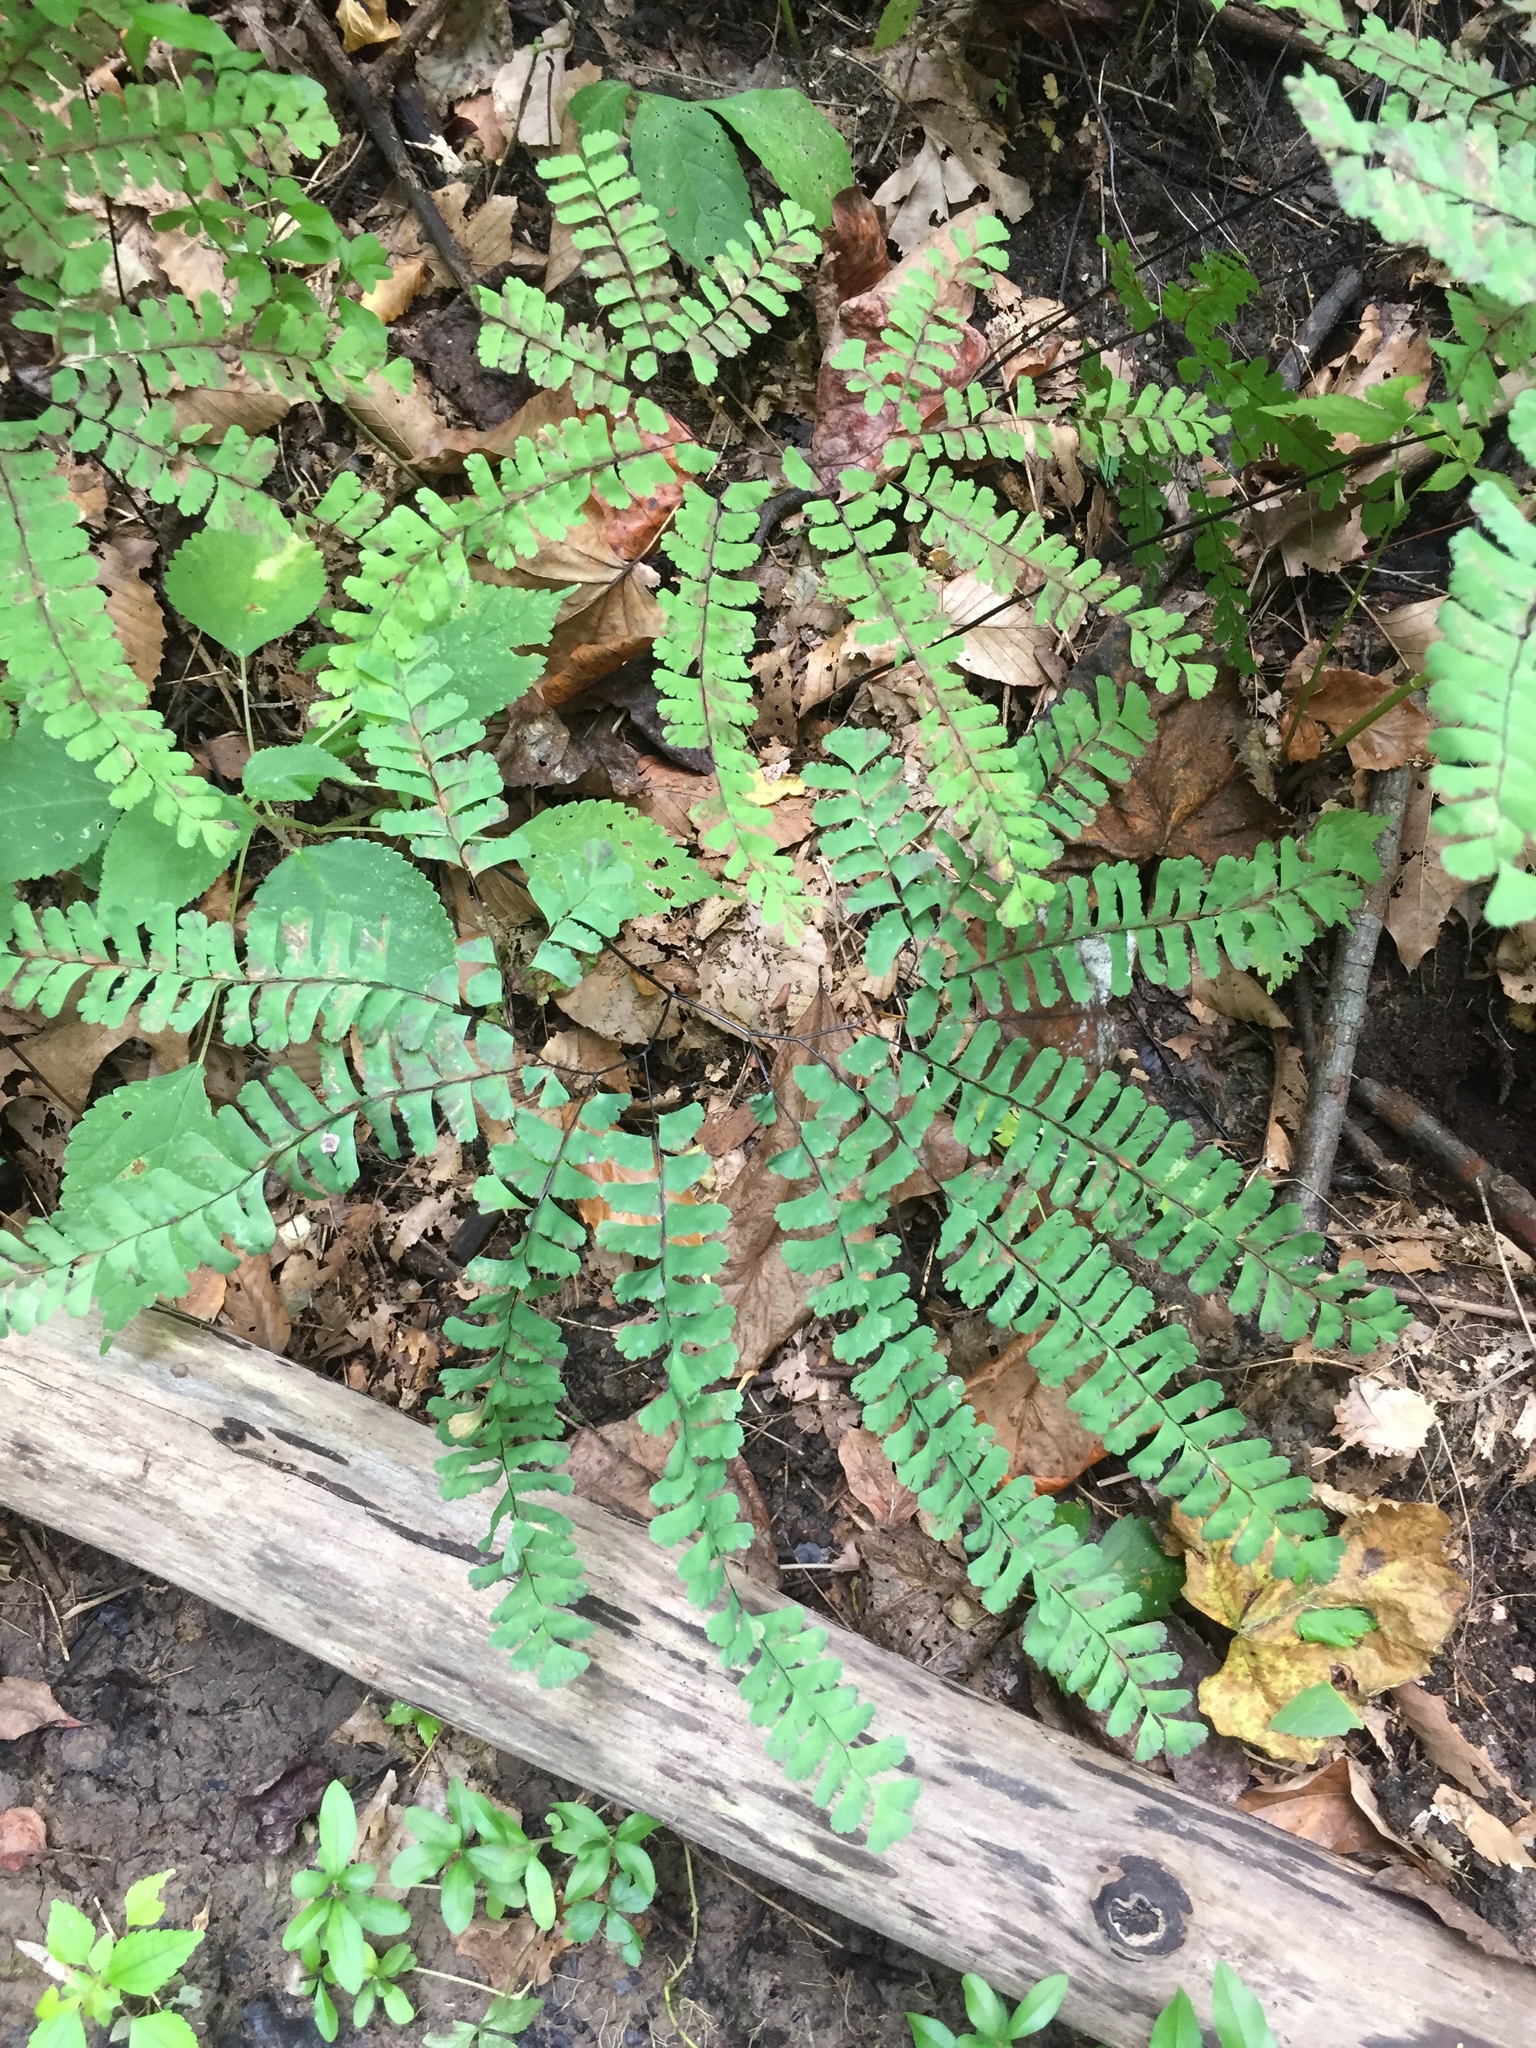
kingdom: Plantae
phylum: Tracheophyta
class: Polypodiopsida
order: Polypodiales
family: Pteridaceae
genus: Adiantum
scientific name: Adiantum pedatum
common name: Five-finger fern
